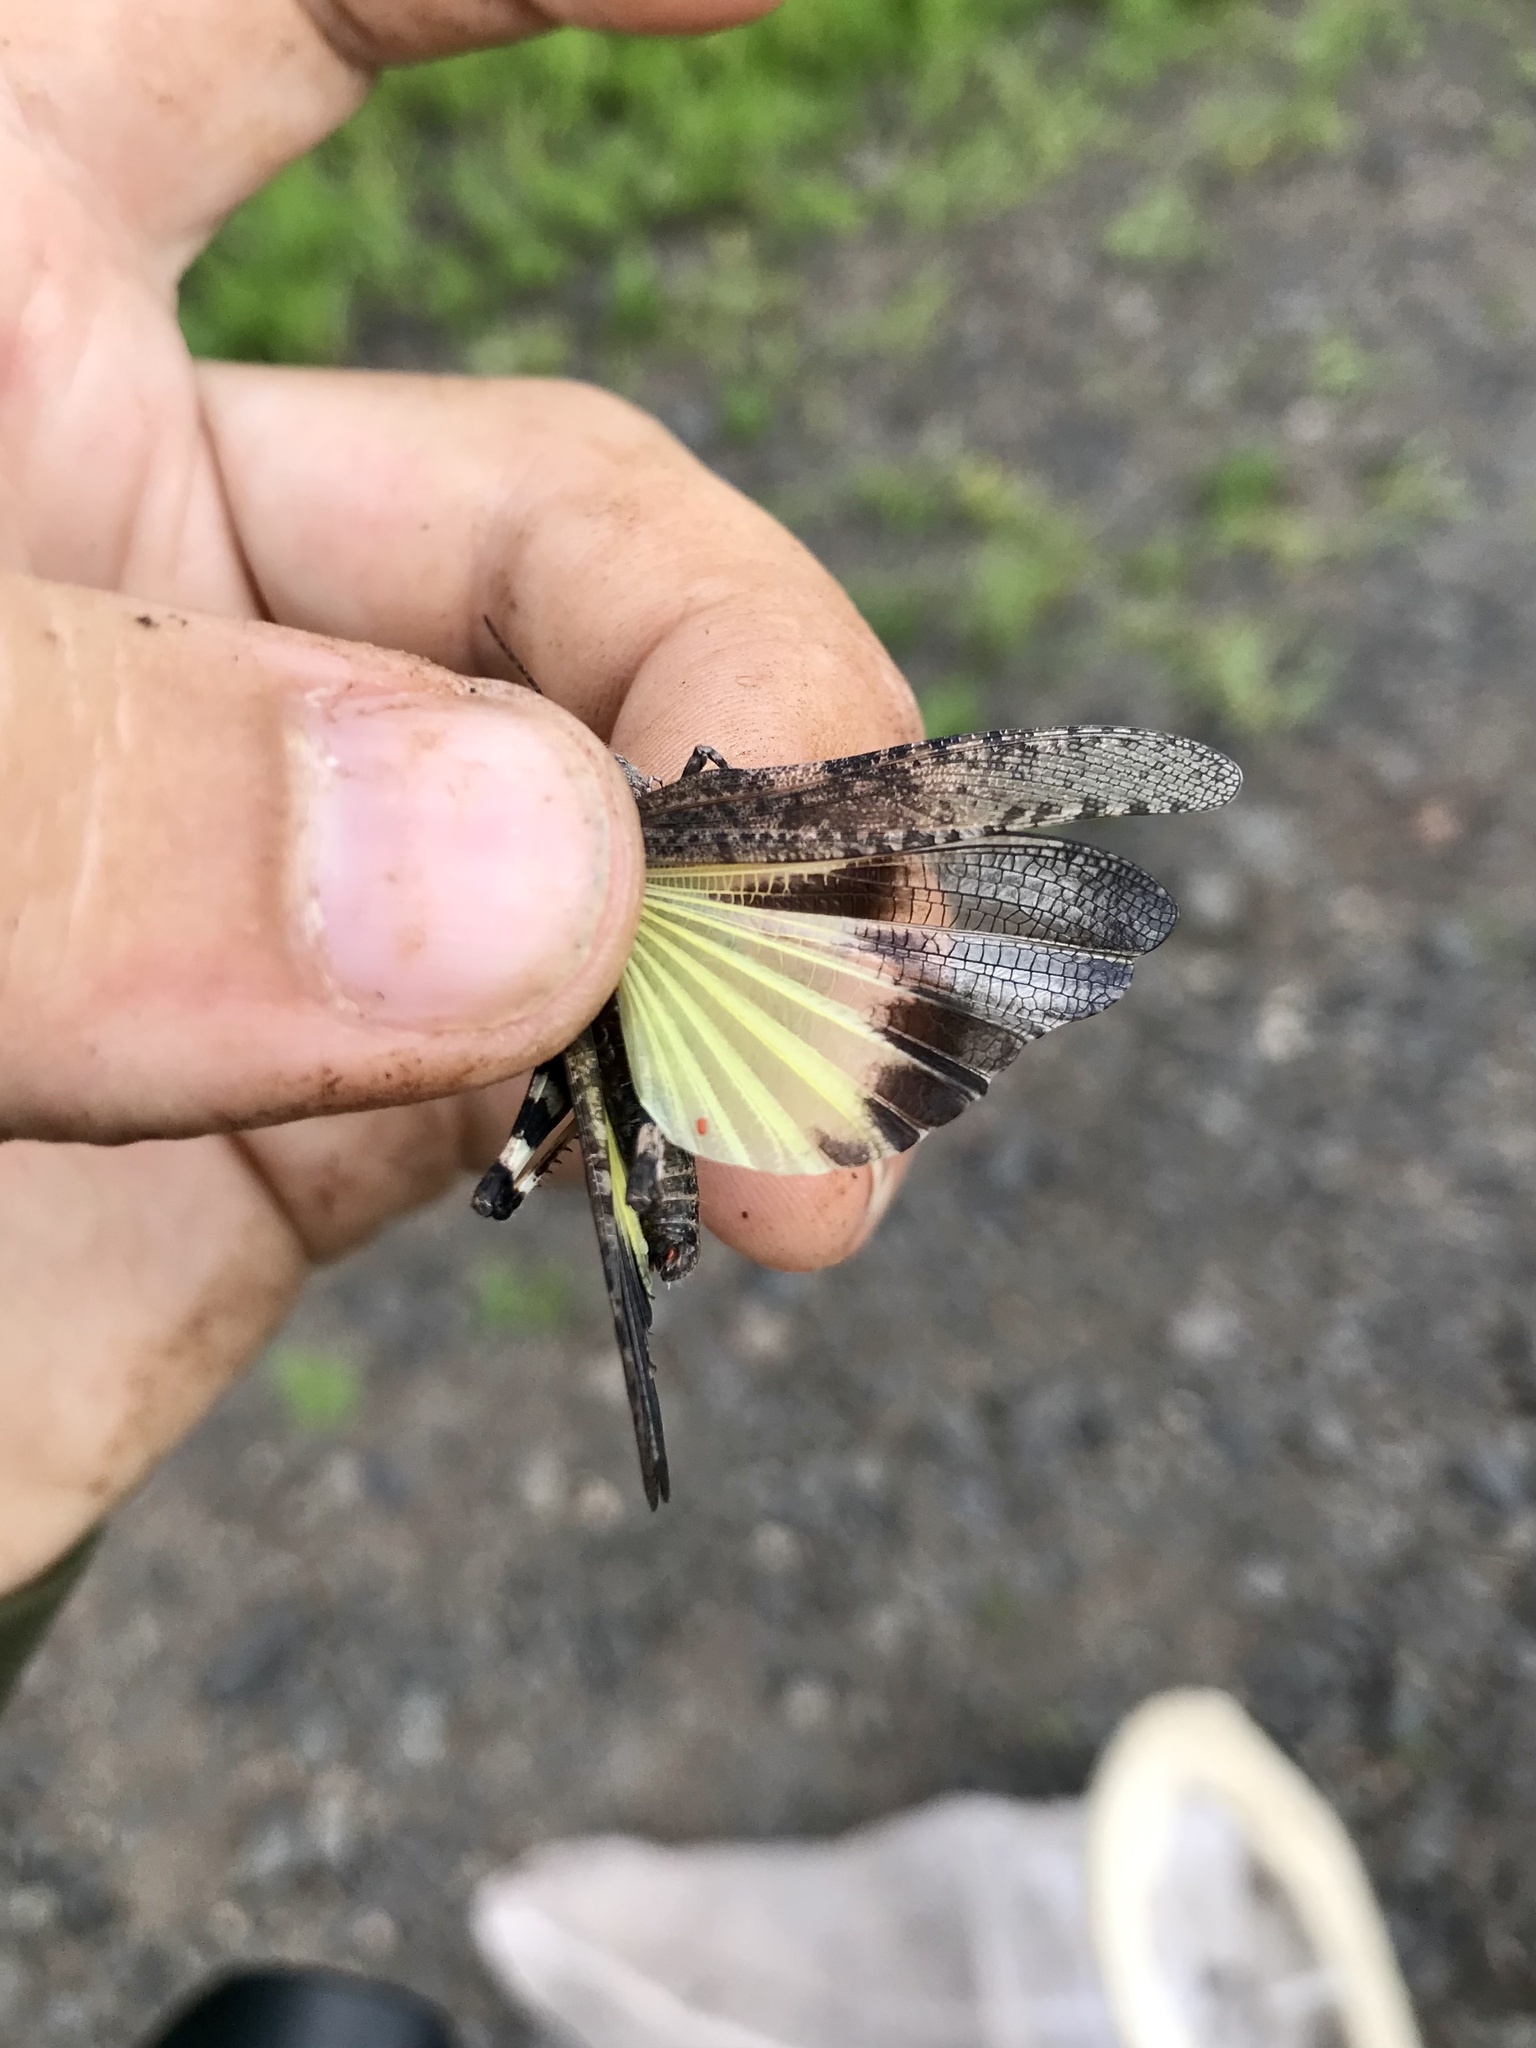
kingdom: Animalia
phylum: Arthropoda
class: Insecta
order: Orthoptera
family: Acrididae
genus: Trimerotropis
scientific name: Trimerotropis verruculata
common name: Crackling forest grasshopper
